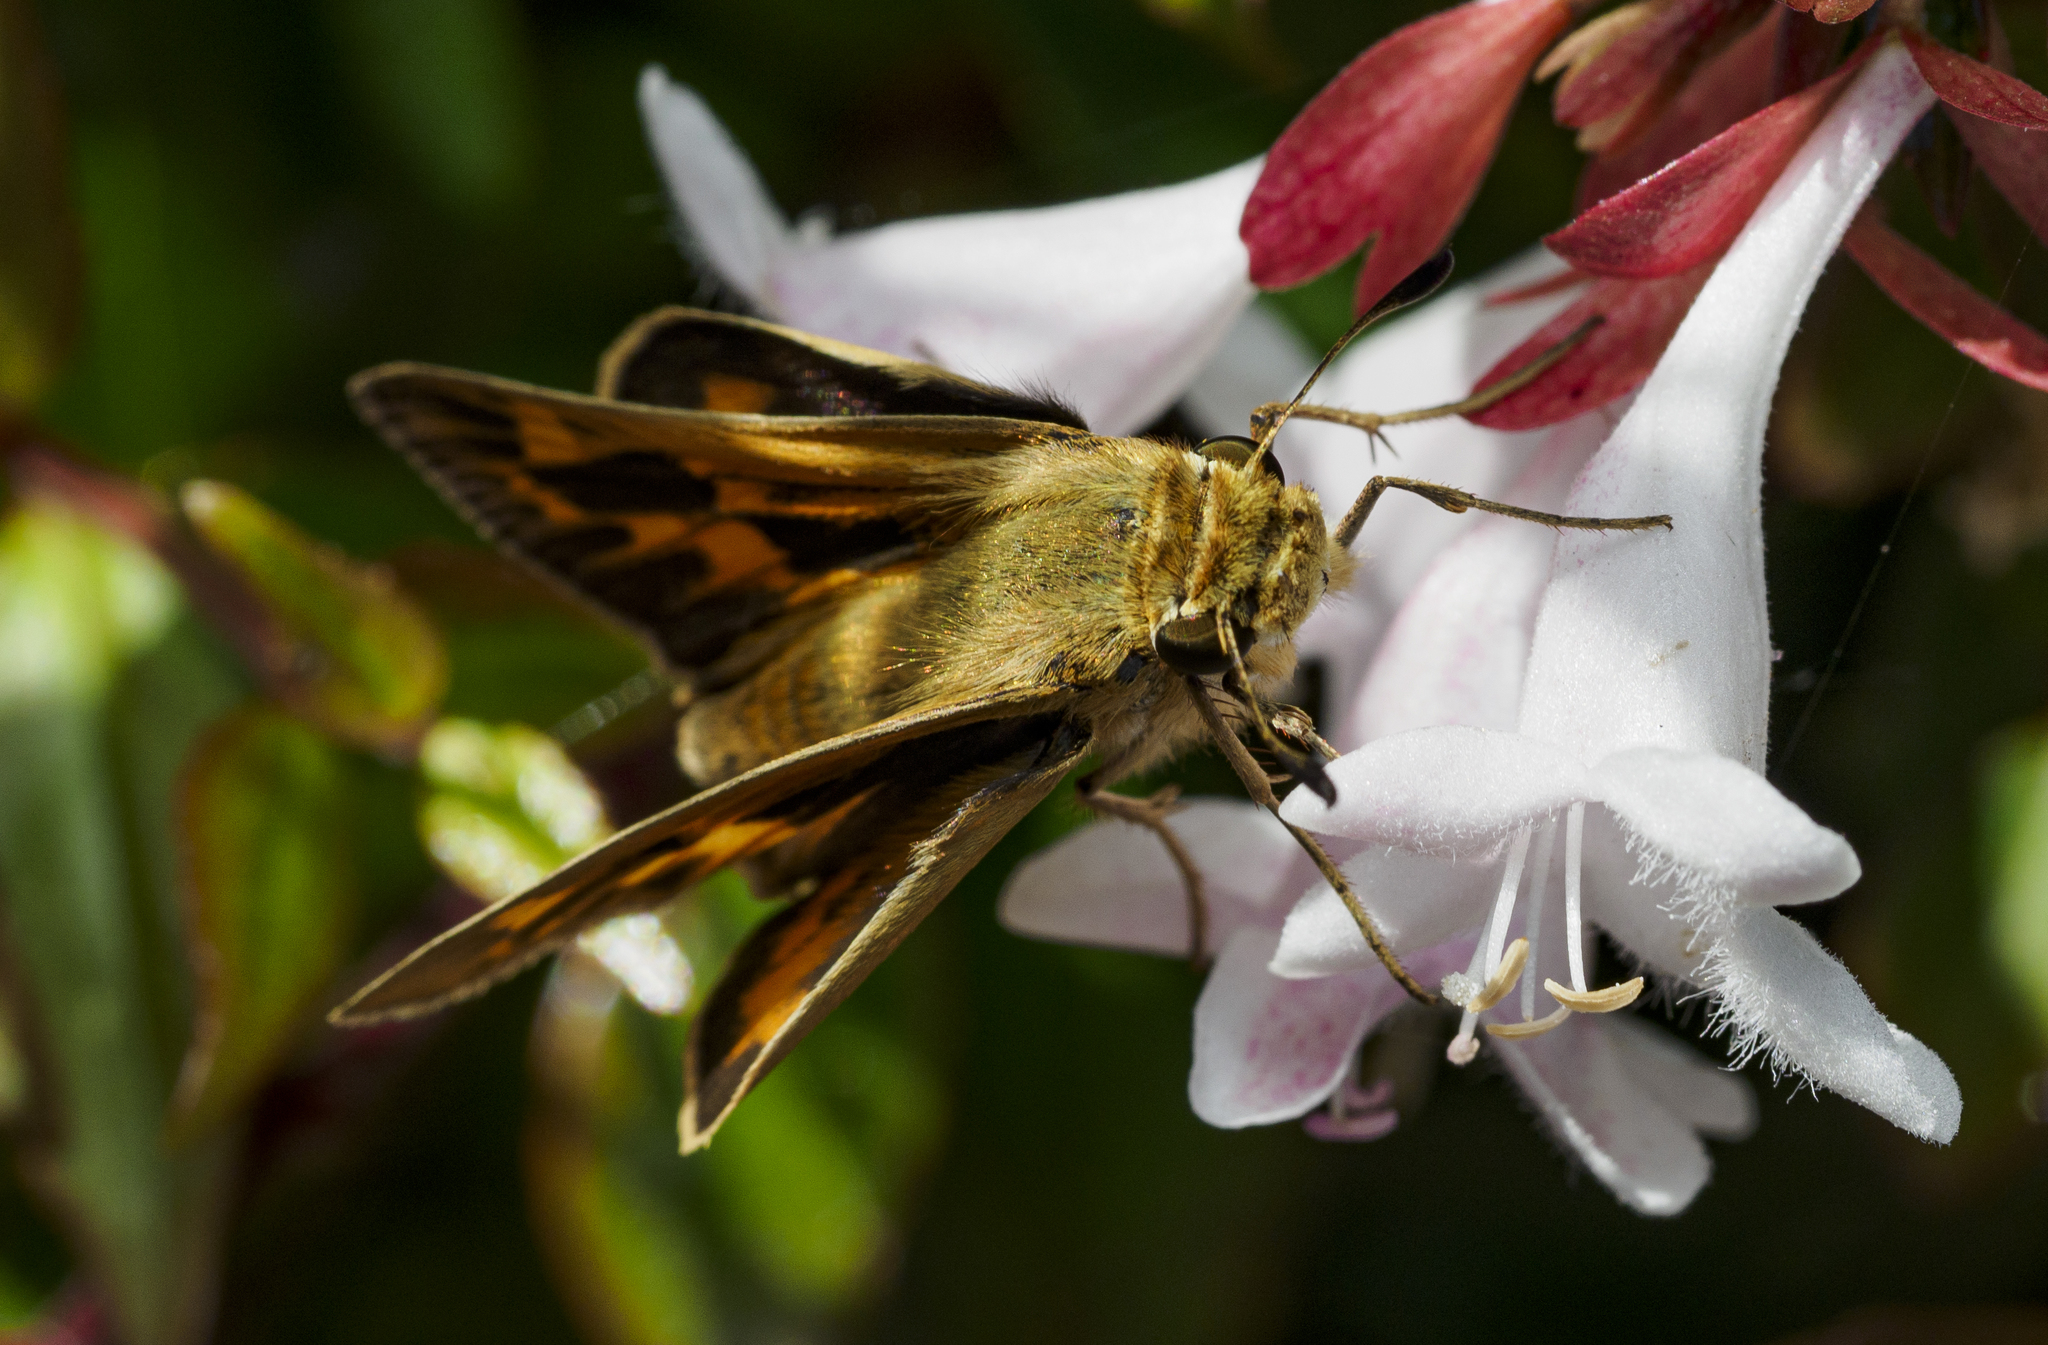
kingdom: Animalia
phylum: Arthropoda
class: Insecta
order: Lepidoptera
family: Hesperiidae
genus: Hylephila
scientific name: Hylephila phyleus
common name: Fiery skipper
